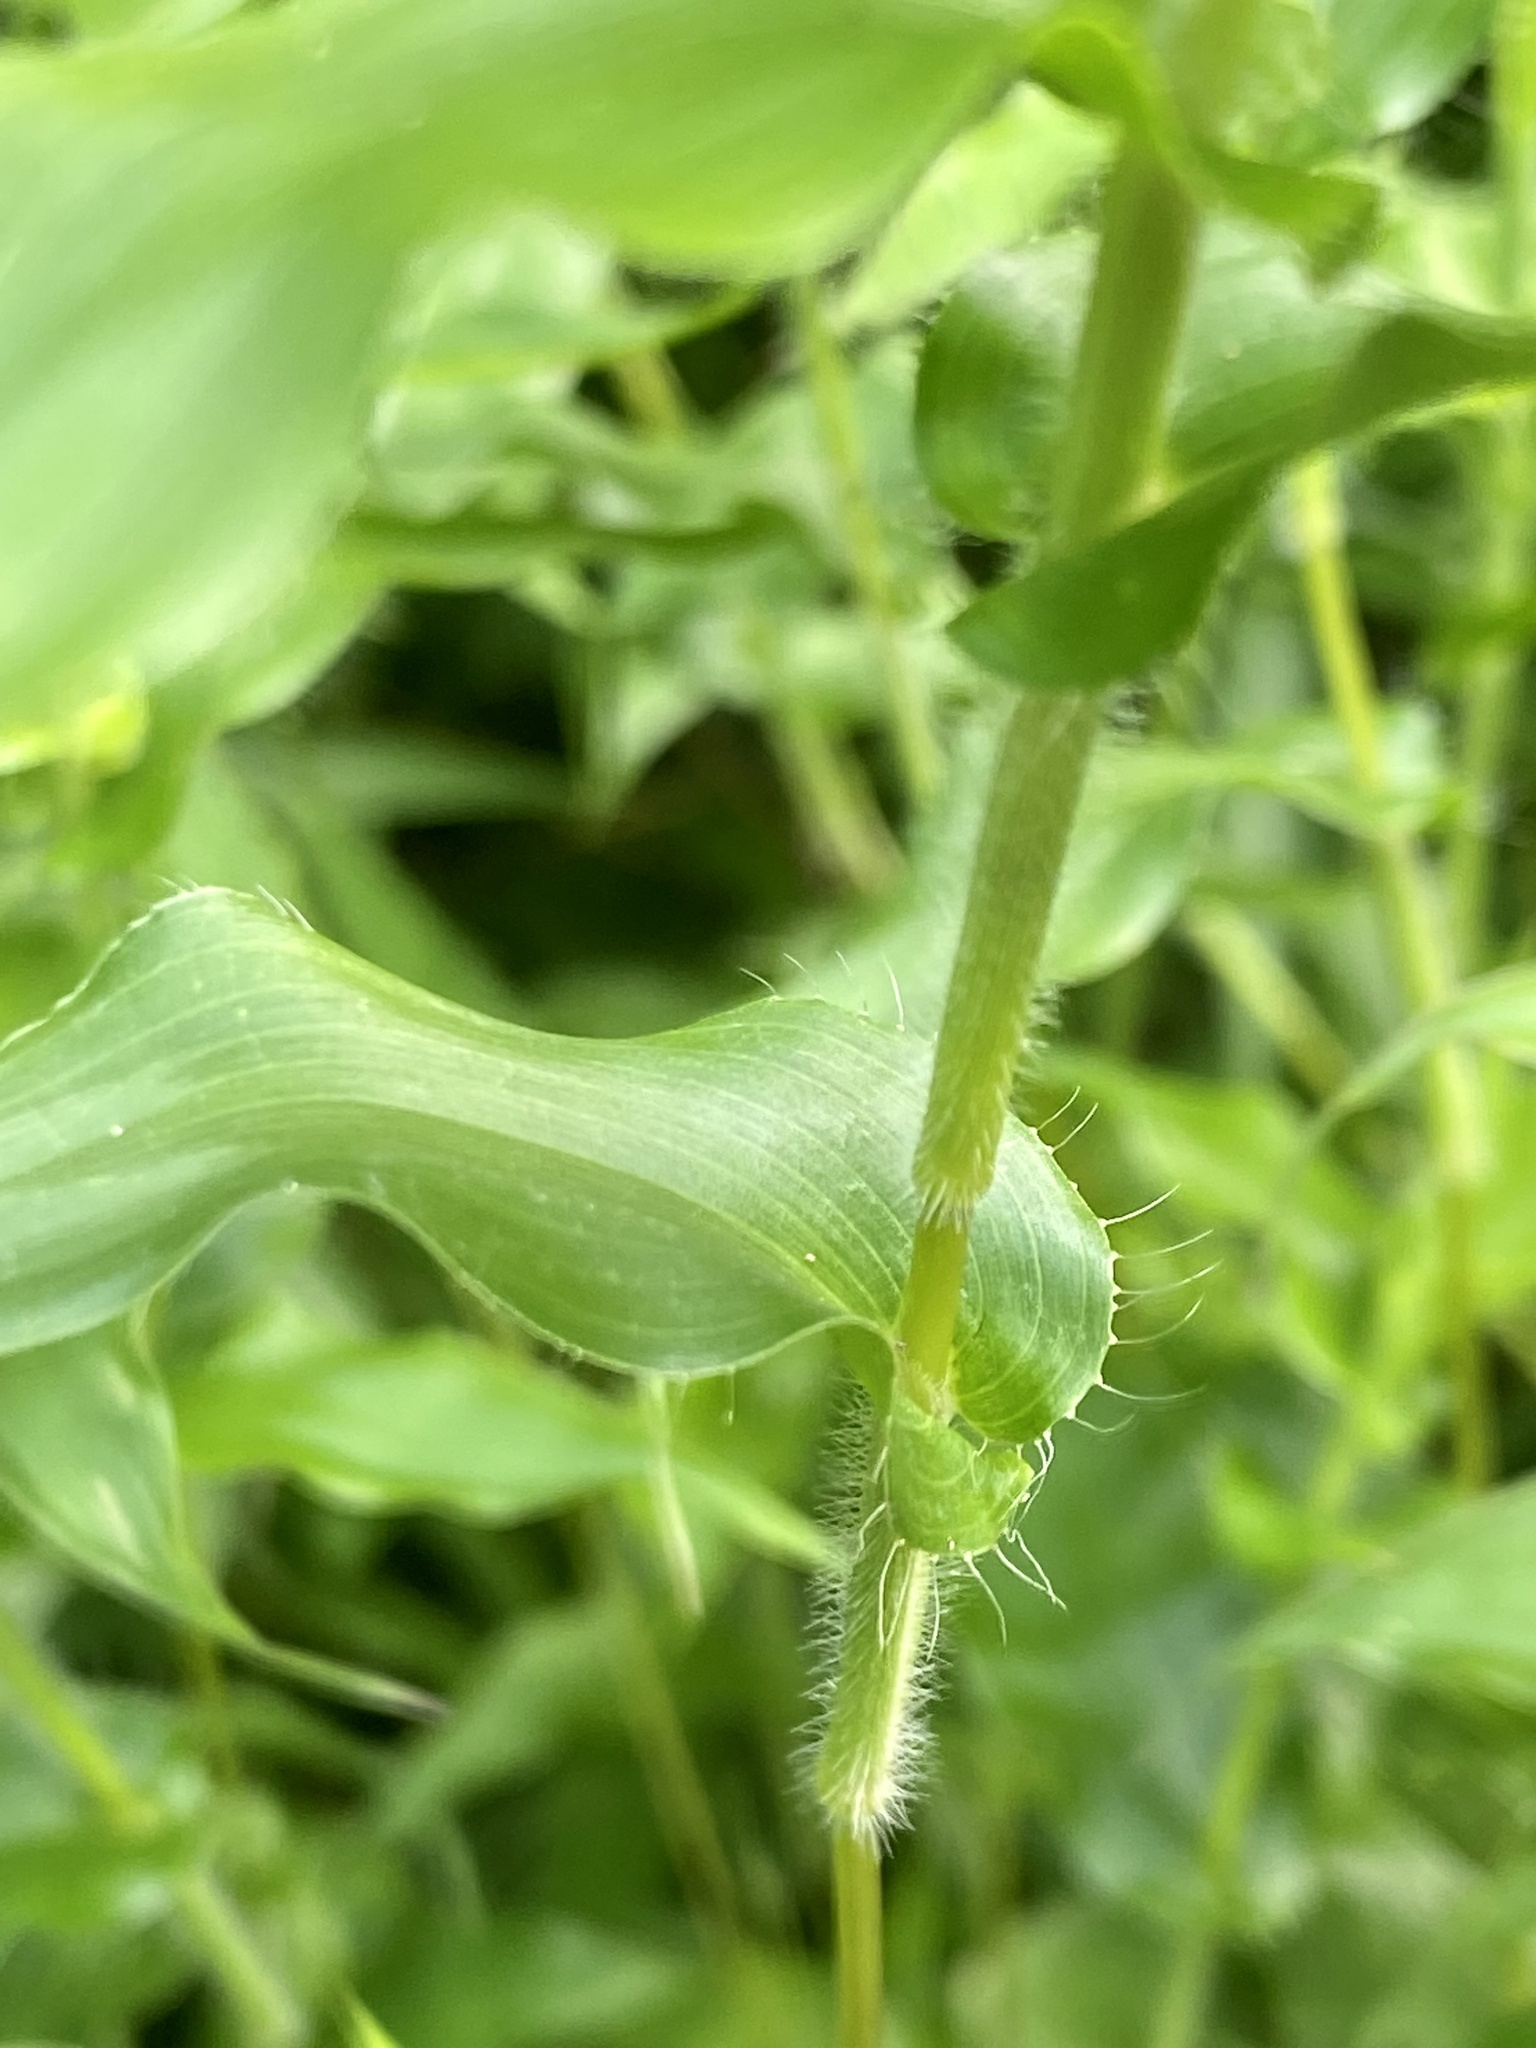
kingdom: Plantae
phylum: Tracheophyta
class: Liliopsida
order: Poales
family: Poaceae
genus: Arthraxon
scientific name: Arthraxon hispidus
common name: Small carpgrass
